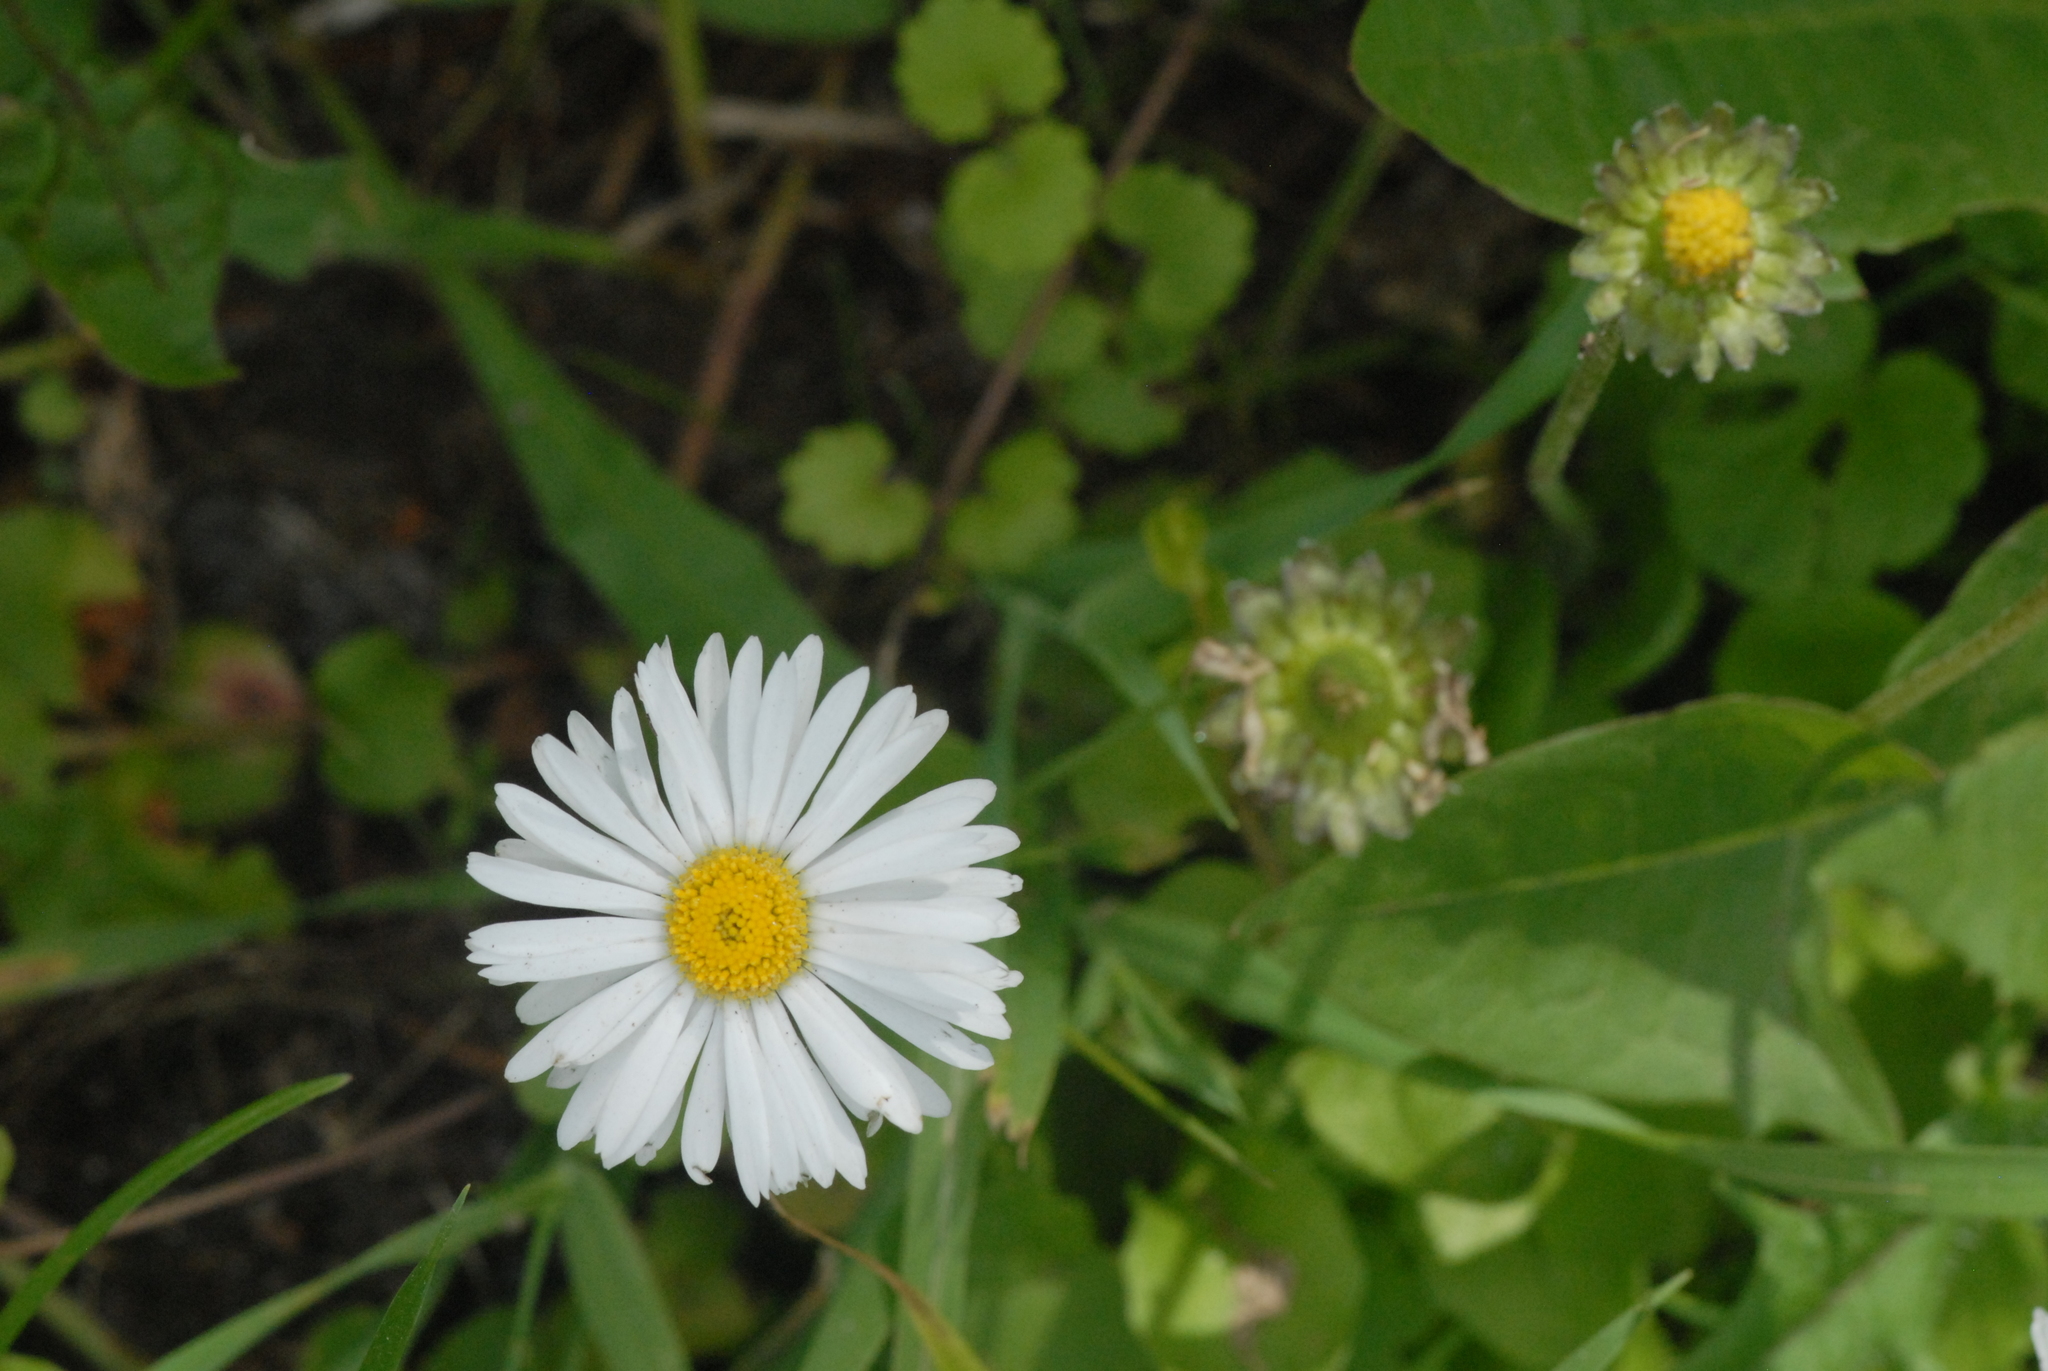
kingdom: Plantae
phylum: Tracheophyta
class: Magnoliopsida
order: Asterales
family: Asteraceae
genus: Bellis
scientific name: Bellis perennis
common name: Lawndaisy
